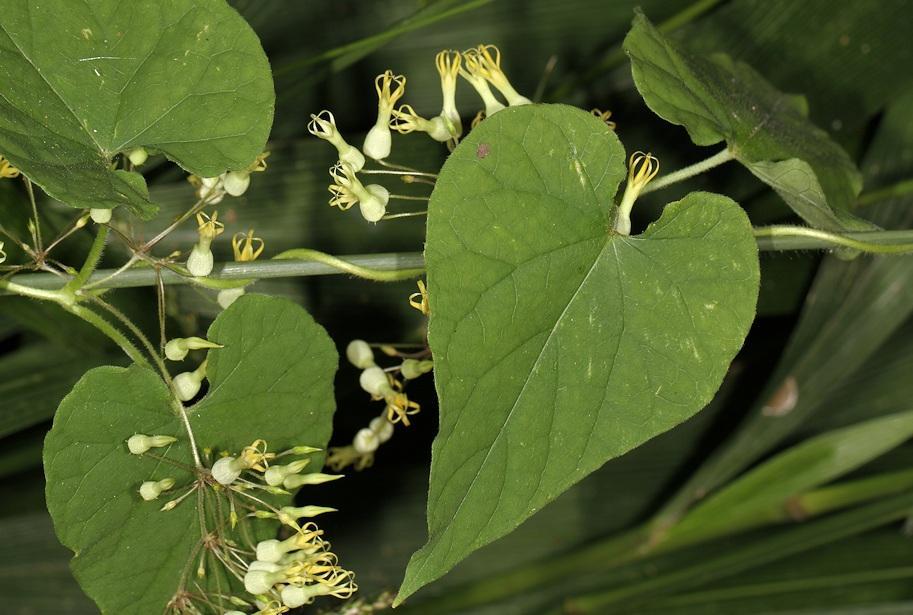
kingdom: Plantae
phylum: Tracheophyta
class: Magnoliopsida
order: Gentianales
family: Apocynaceae
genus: Riocreuxia
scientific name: Riocreuxia torulosa
